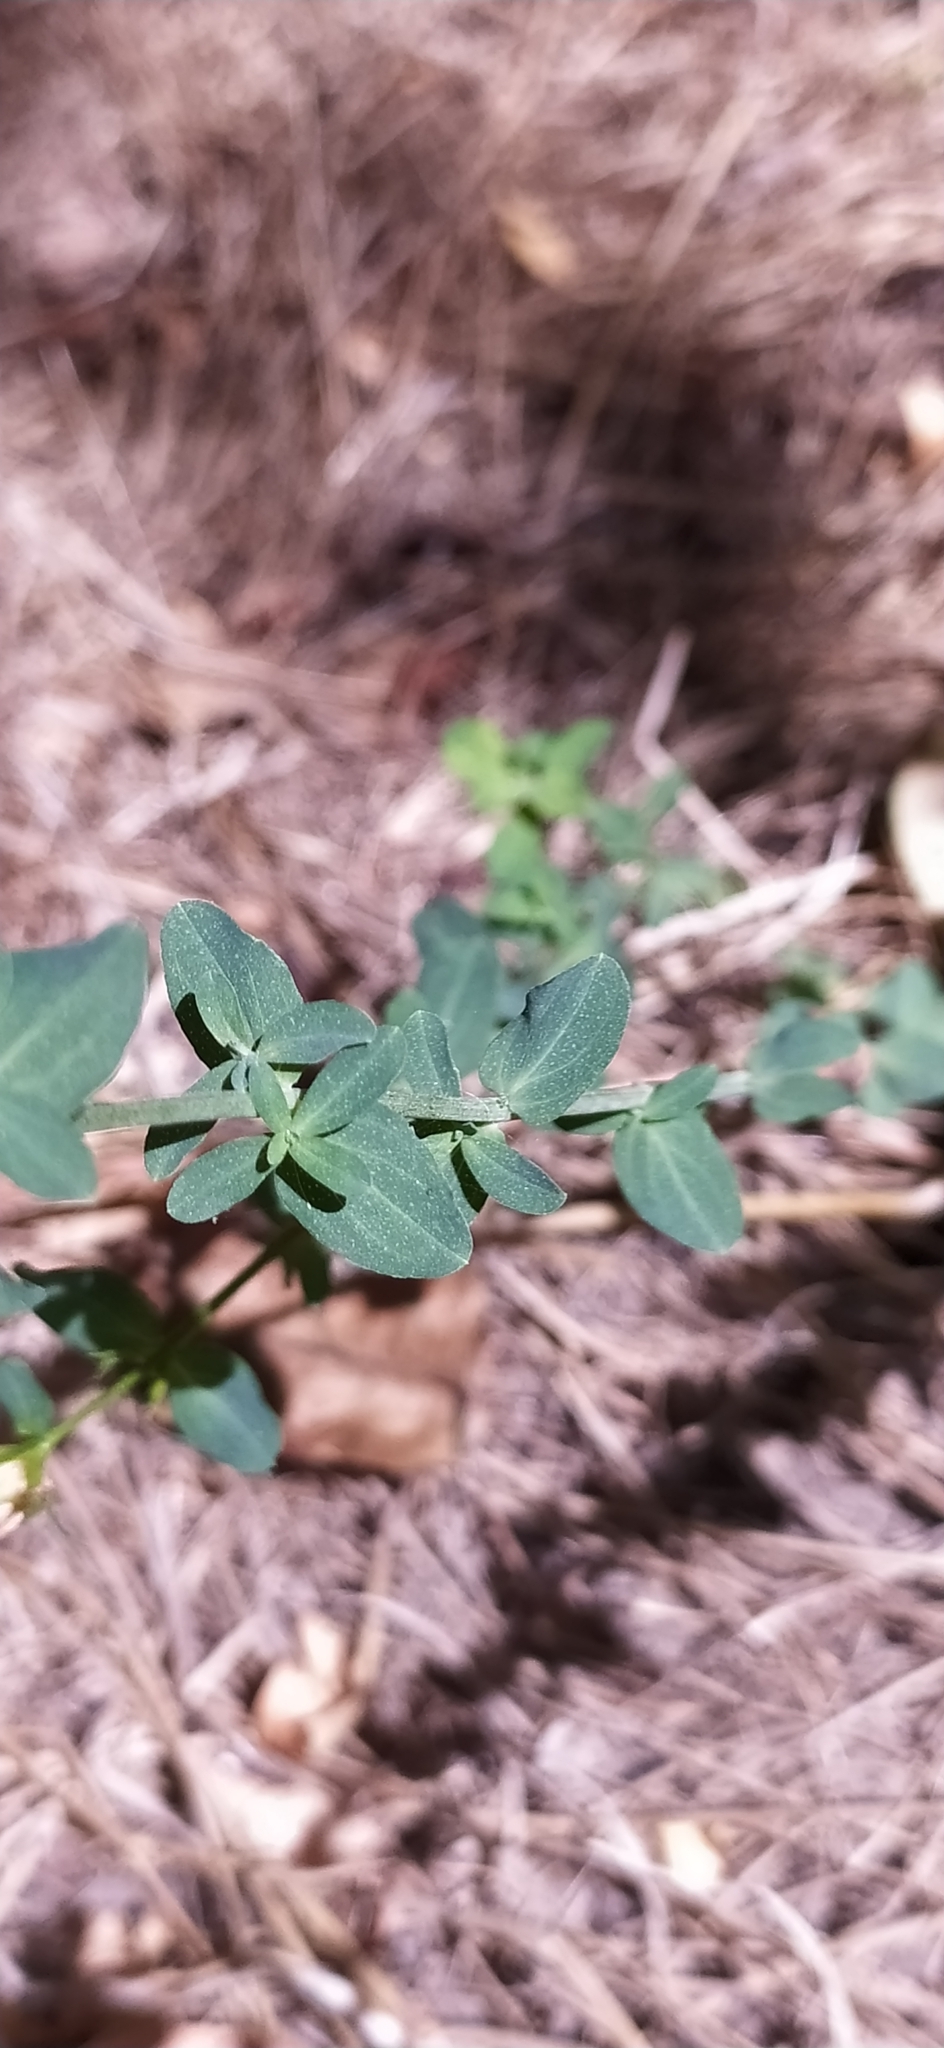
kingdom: Plantae
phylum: Tracheophyta
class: Magnoliopsida
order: Malpighiales
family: Hypericaceae
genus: Hypericum
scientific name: Hypericum perforatum
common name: Common st. johnswort
